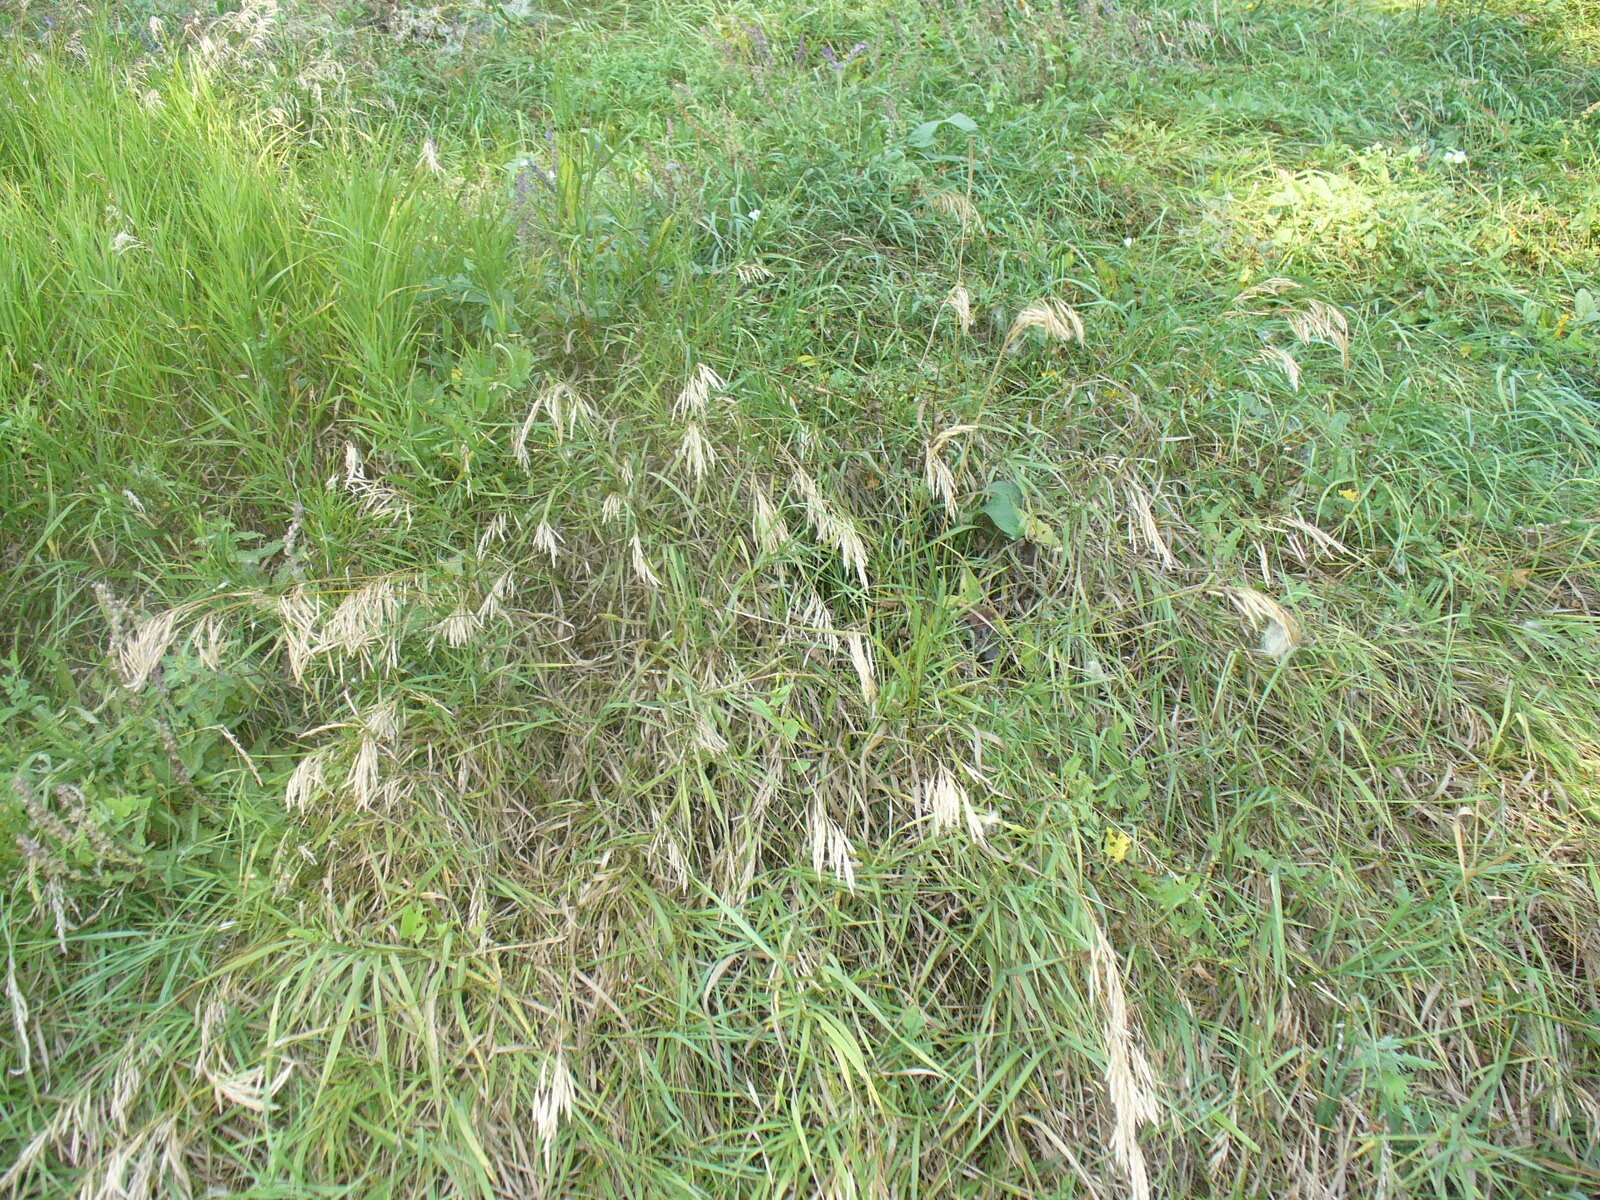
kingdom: Plantae
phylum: Tracheophyta
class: Liliopsida
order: Poales
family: Poaceae
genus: Bromus
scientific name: Bromus inermis
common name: Smooth brome
